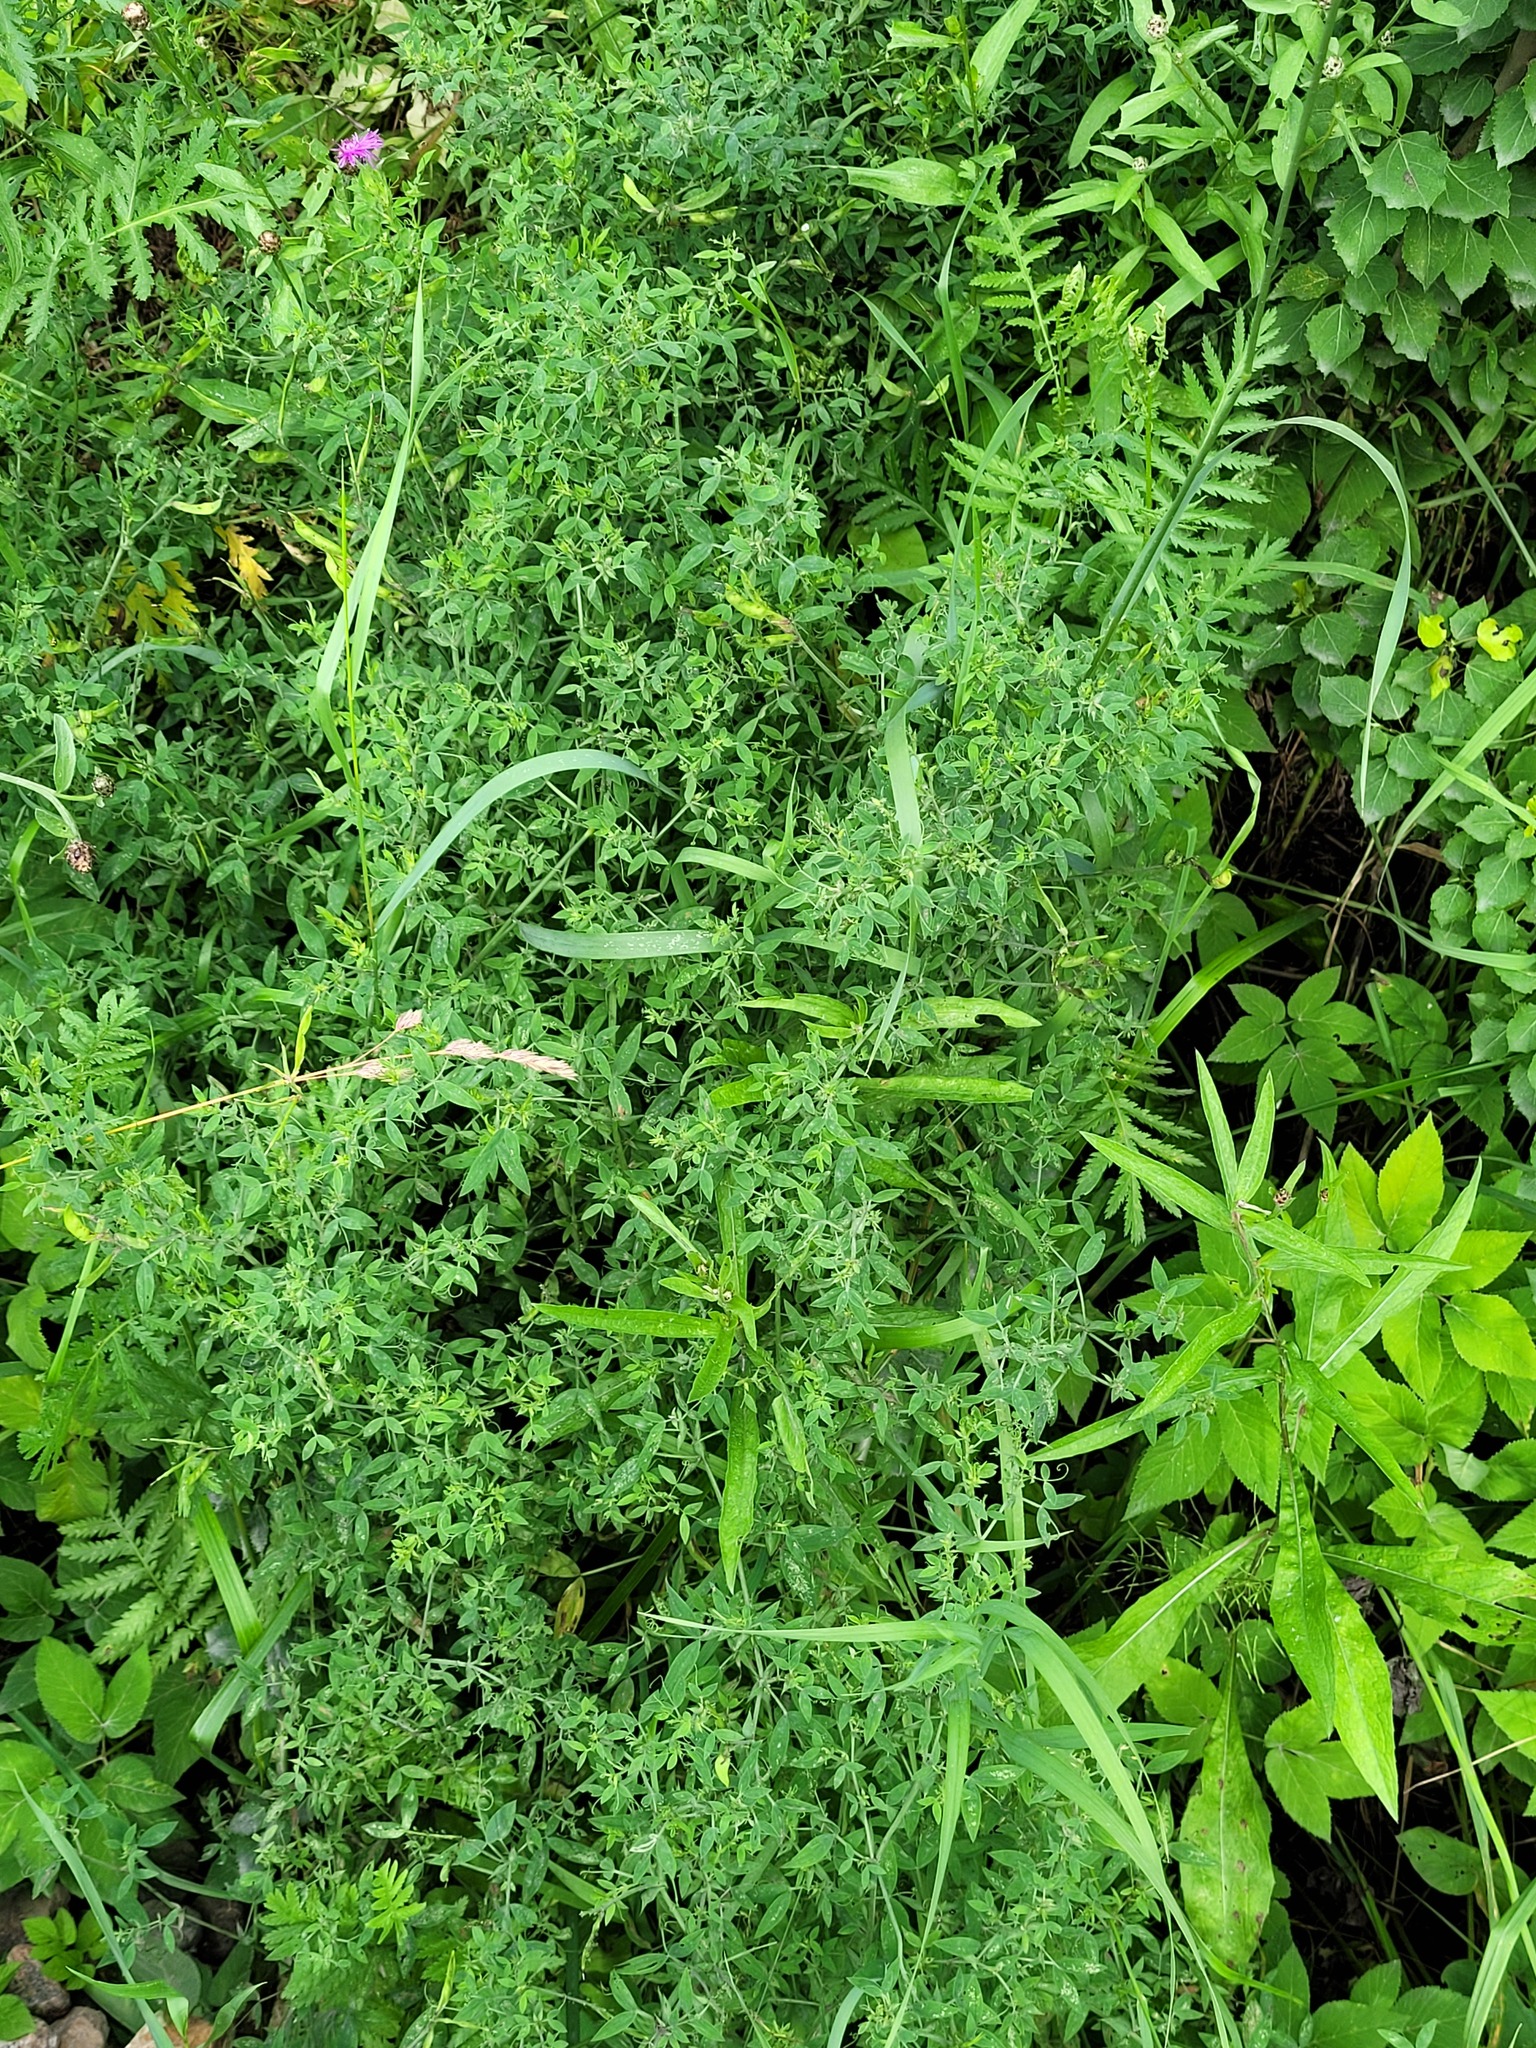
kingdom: Plantae
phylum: Tracheophyta
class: Magnoliopsida
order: Fabales
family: Fabaceae
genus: Lathyrus
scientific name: Lathyrus pratensis
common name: Meadow vetchling
